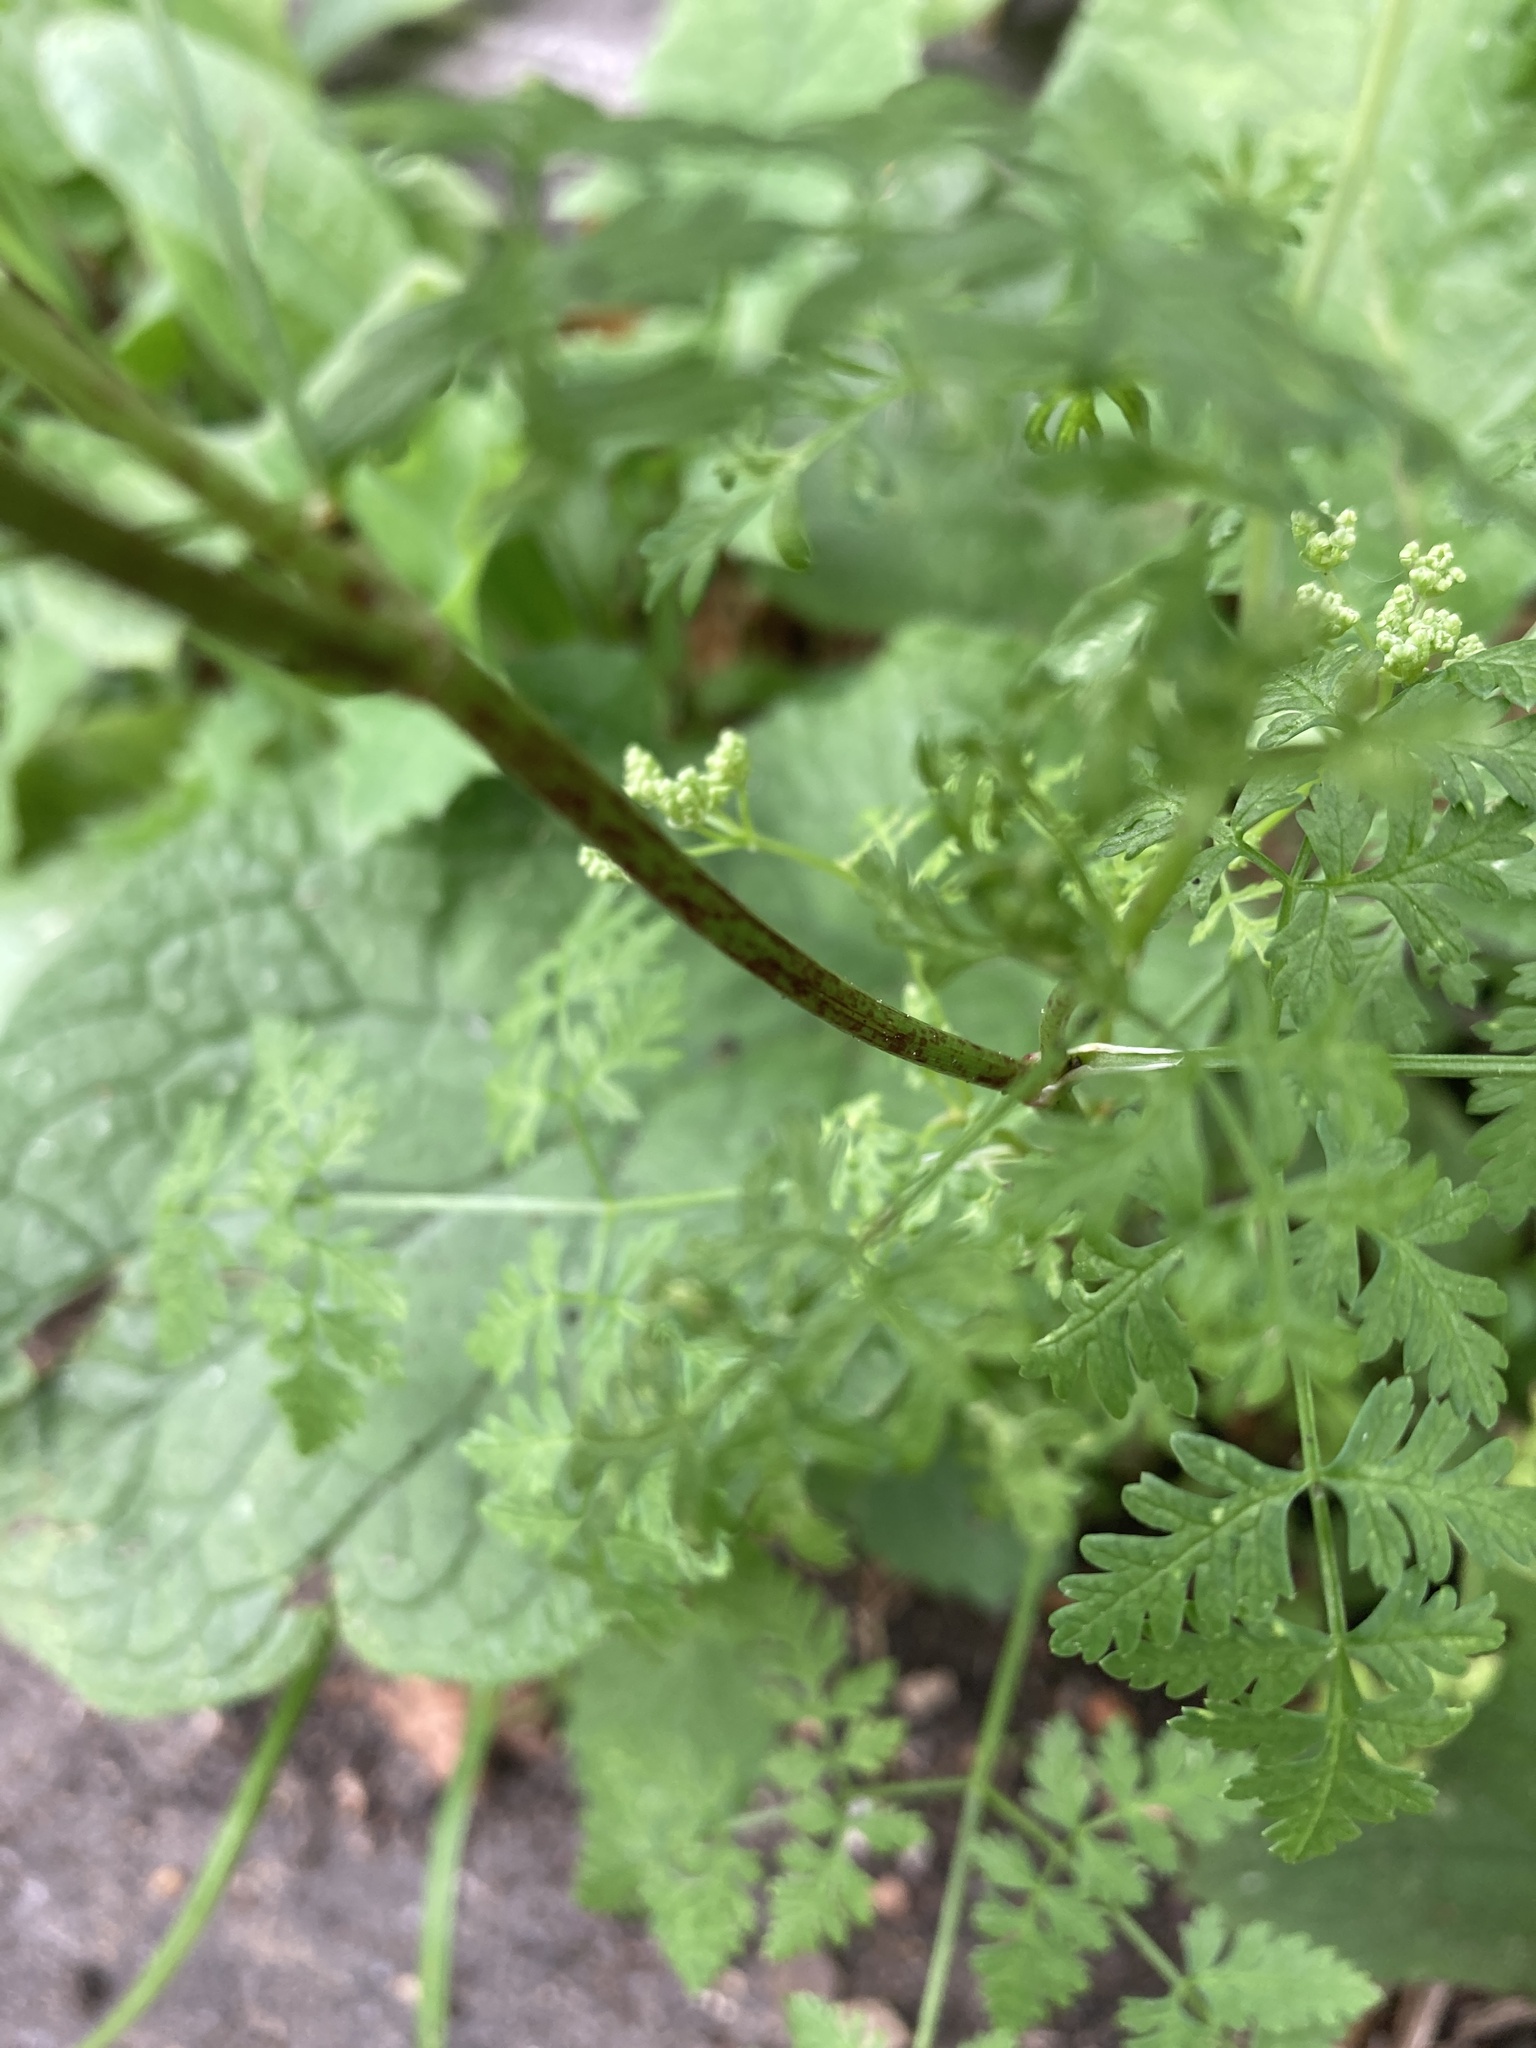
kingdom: Plantae
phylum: Tracheophyta
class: Magnoliopsida
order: Apiales
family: Apiaceae
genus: Conium
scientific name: Conium maculatum
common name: Hemlock
